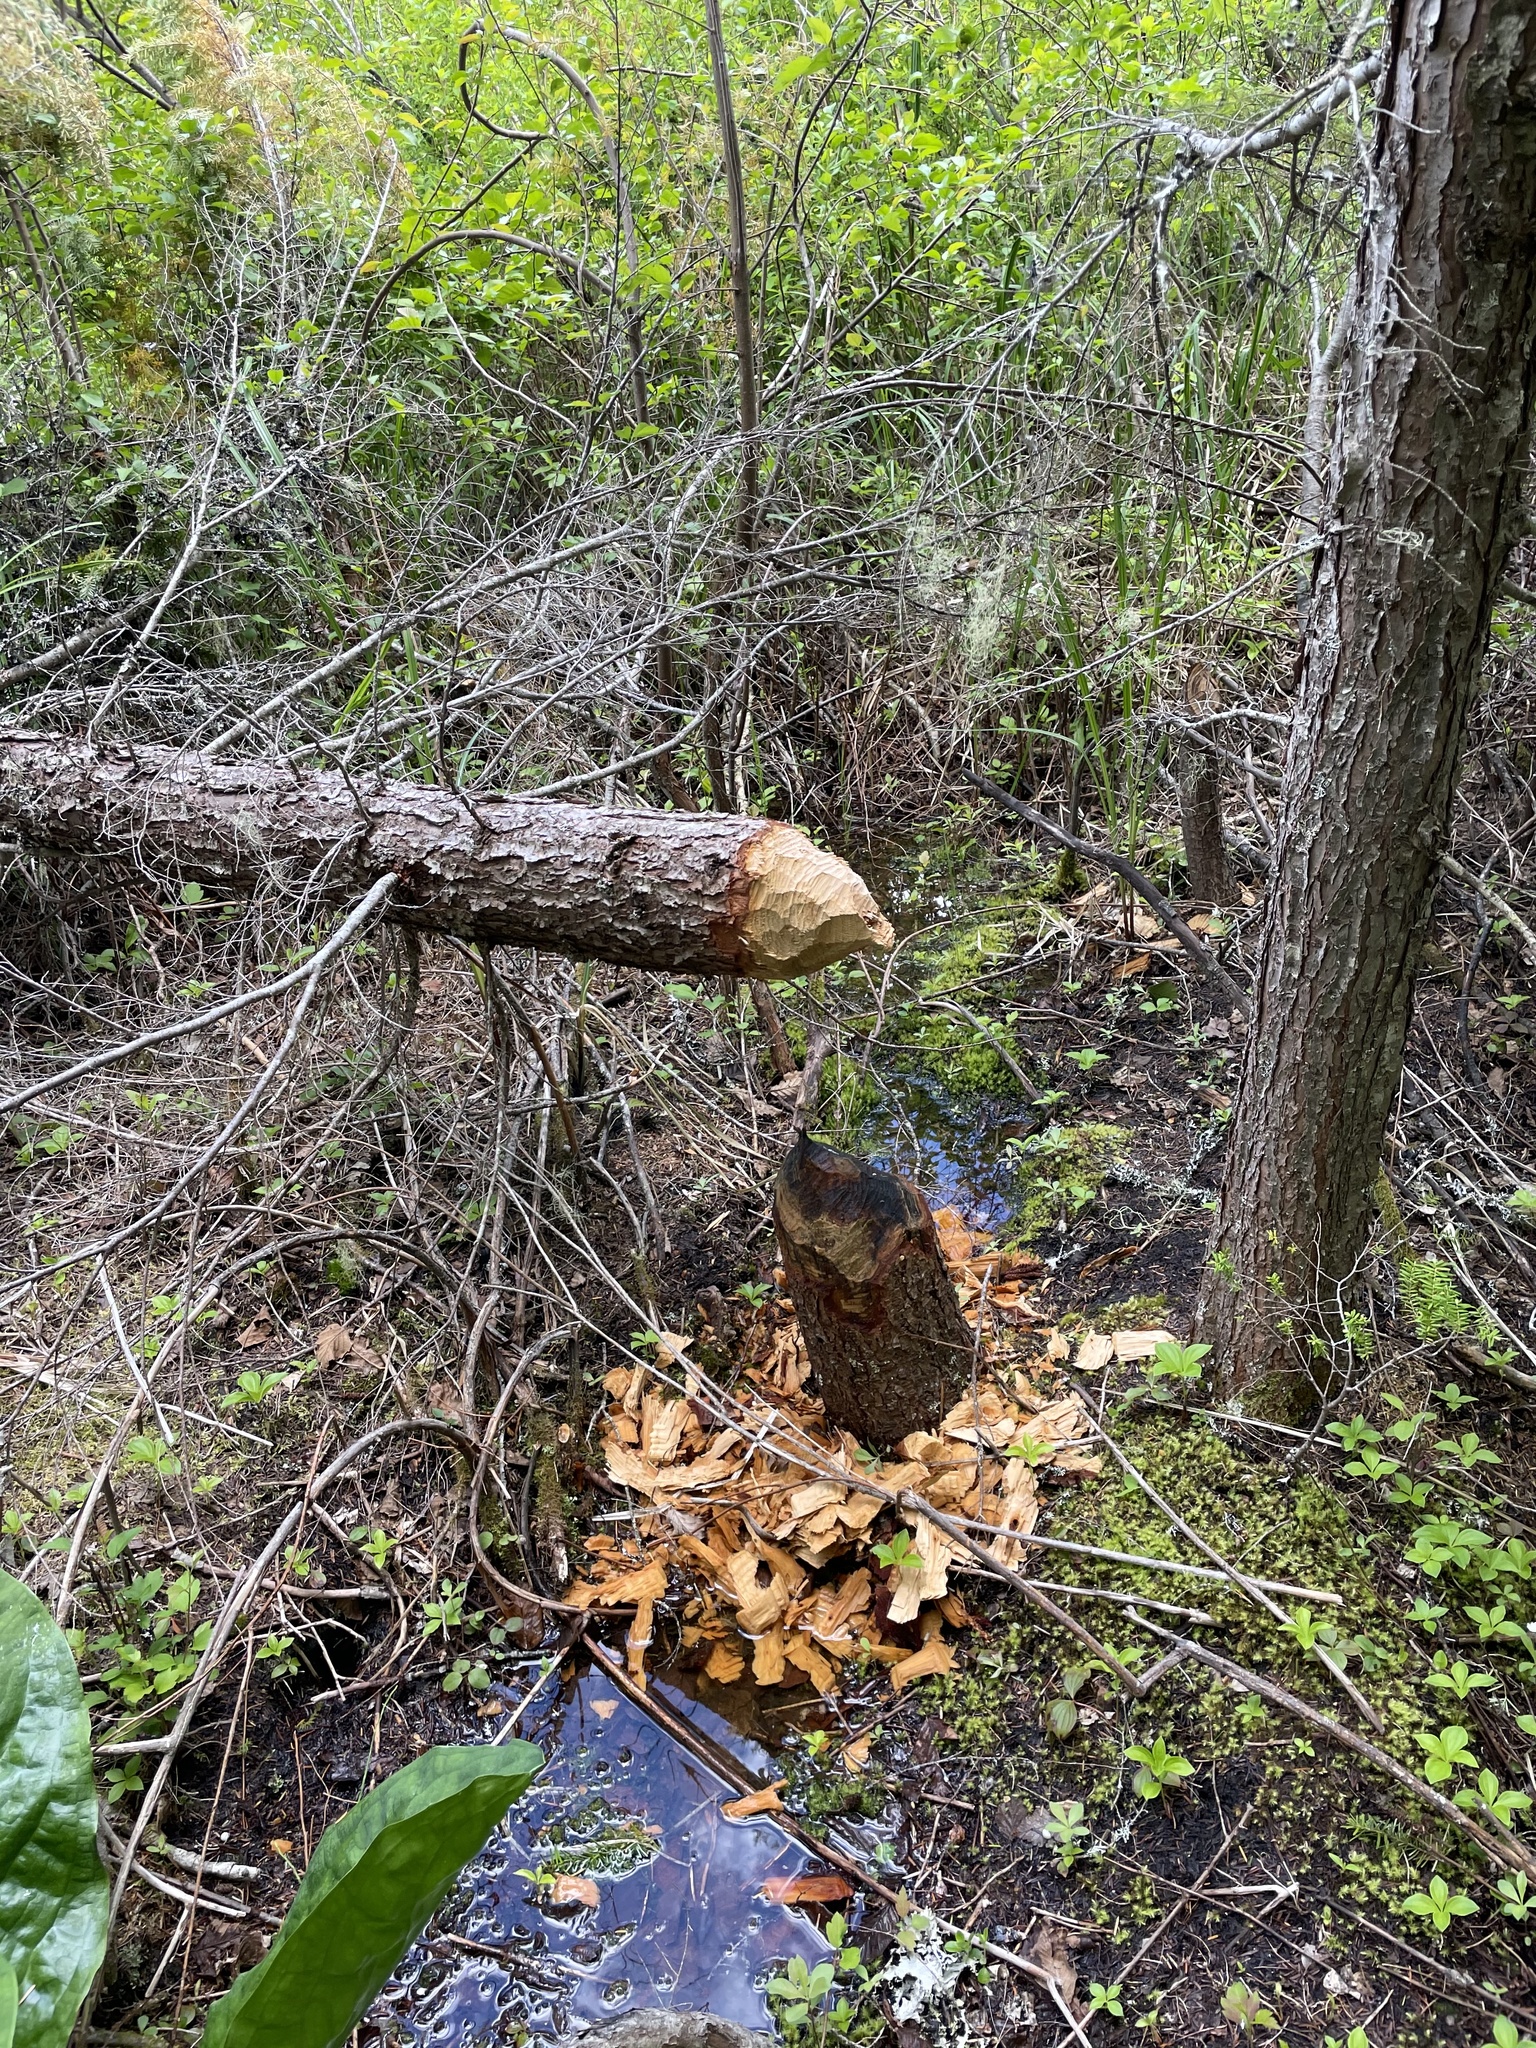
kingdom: Animalia
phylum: Chordata
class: Mammalia
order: Rodentia
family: Castoridae
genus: Castor
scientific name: Castor canadensis
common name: American beaver
